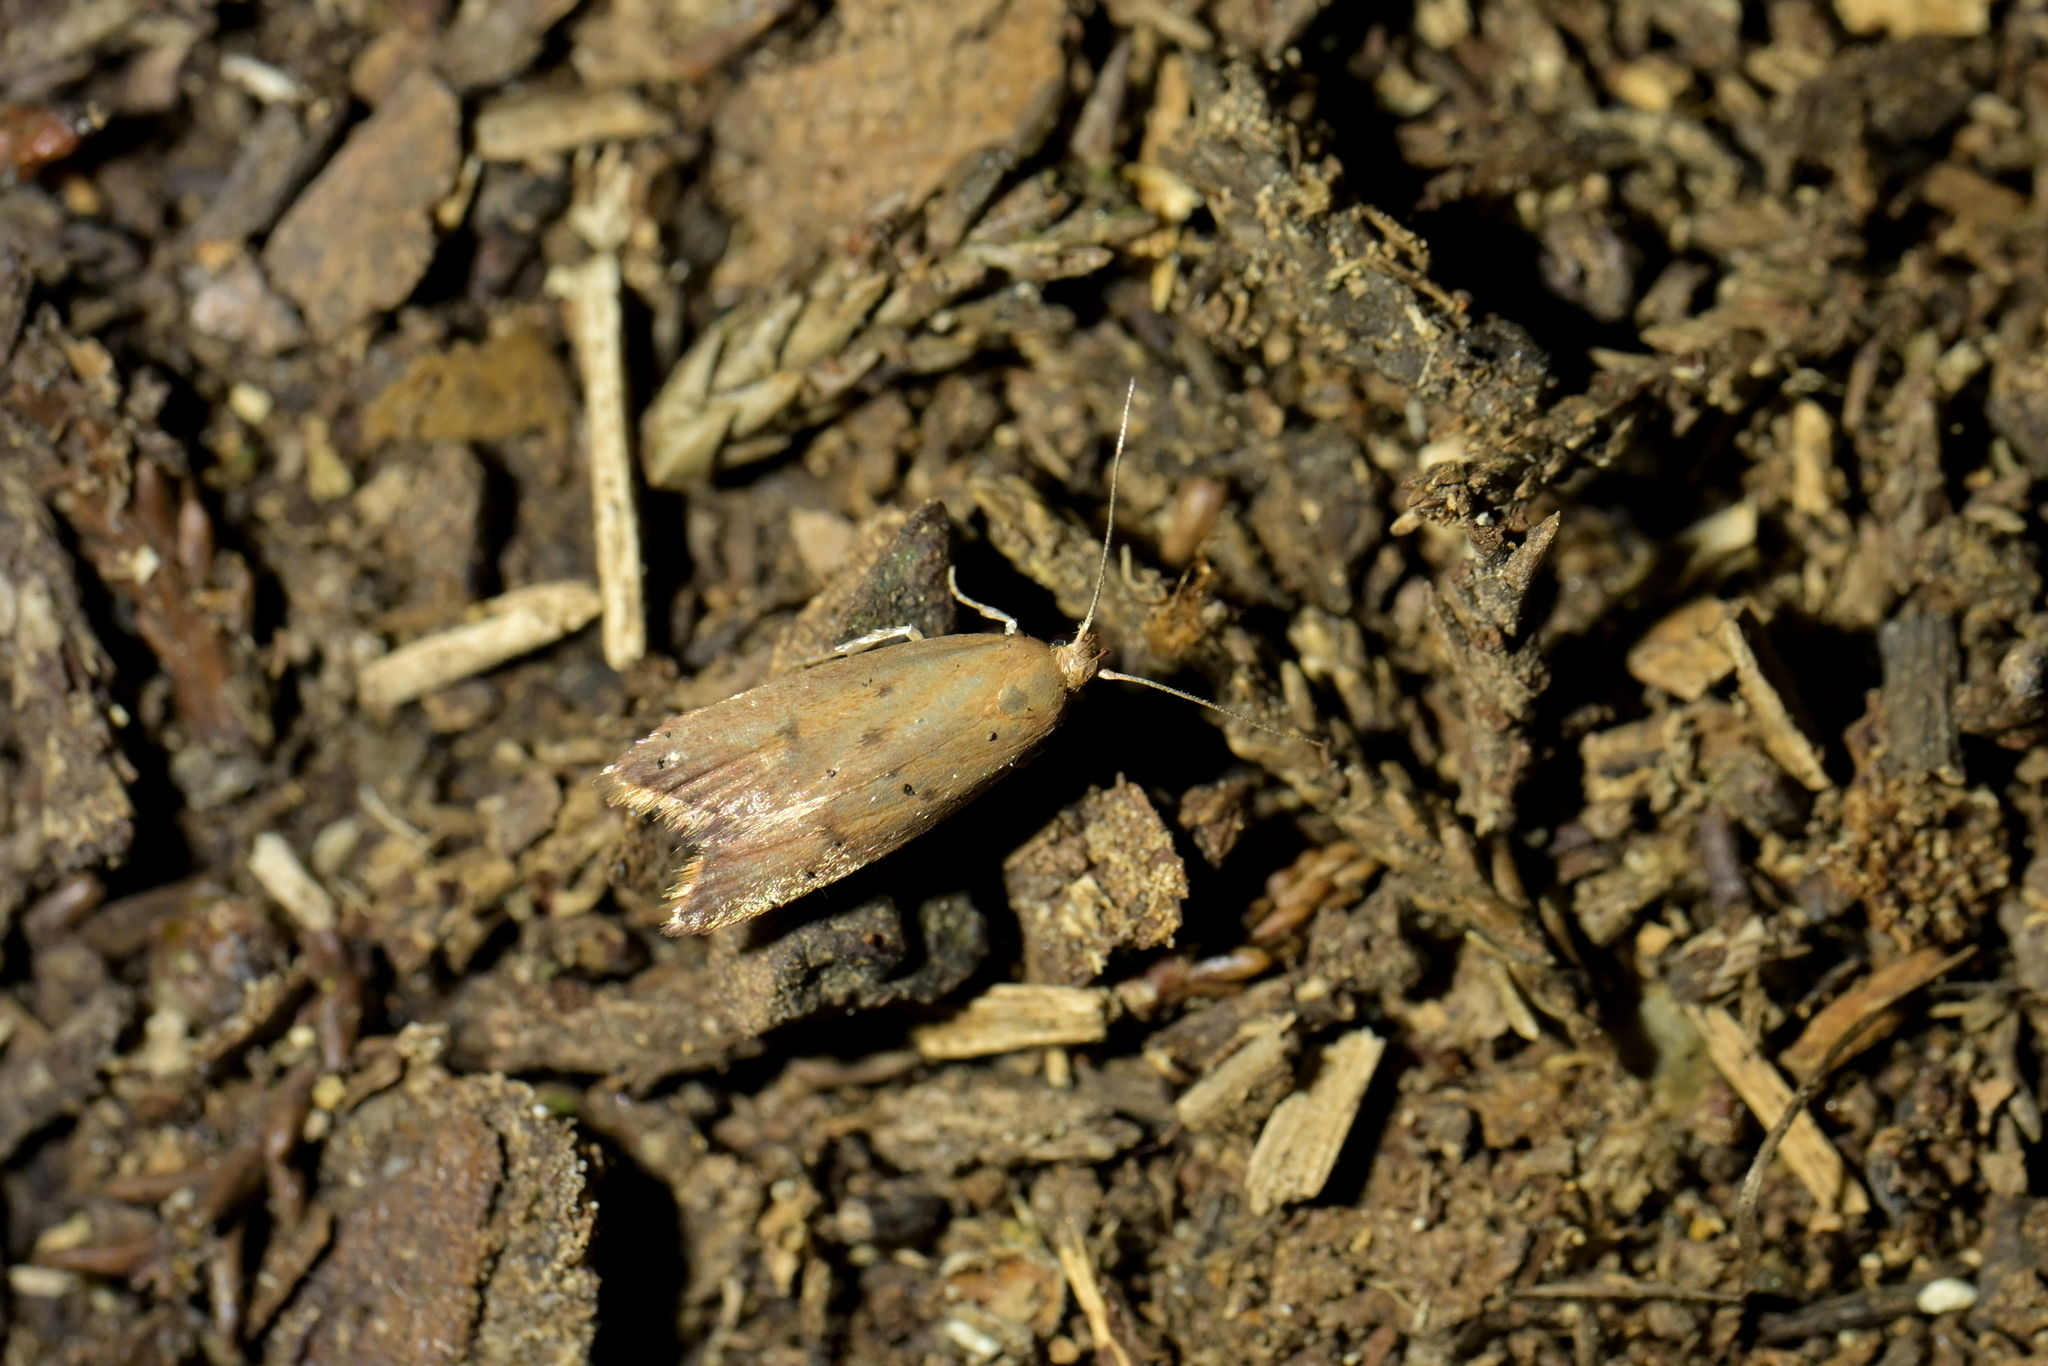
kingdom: Animalia
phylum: Arthropoda
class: Insecta
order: Lepidoptera
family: Oecophoridae
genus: Tachystola
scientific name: Tachystola acroxantha
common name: Ruddy streak
